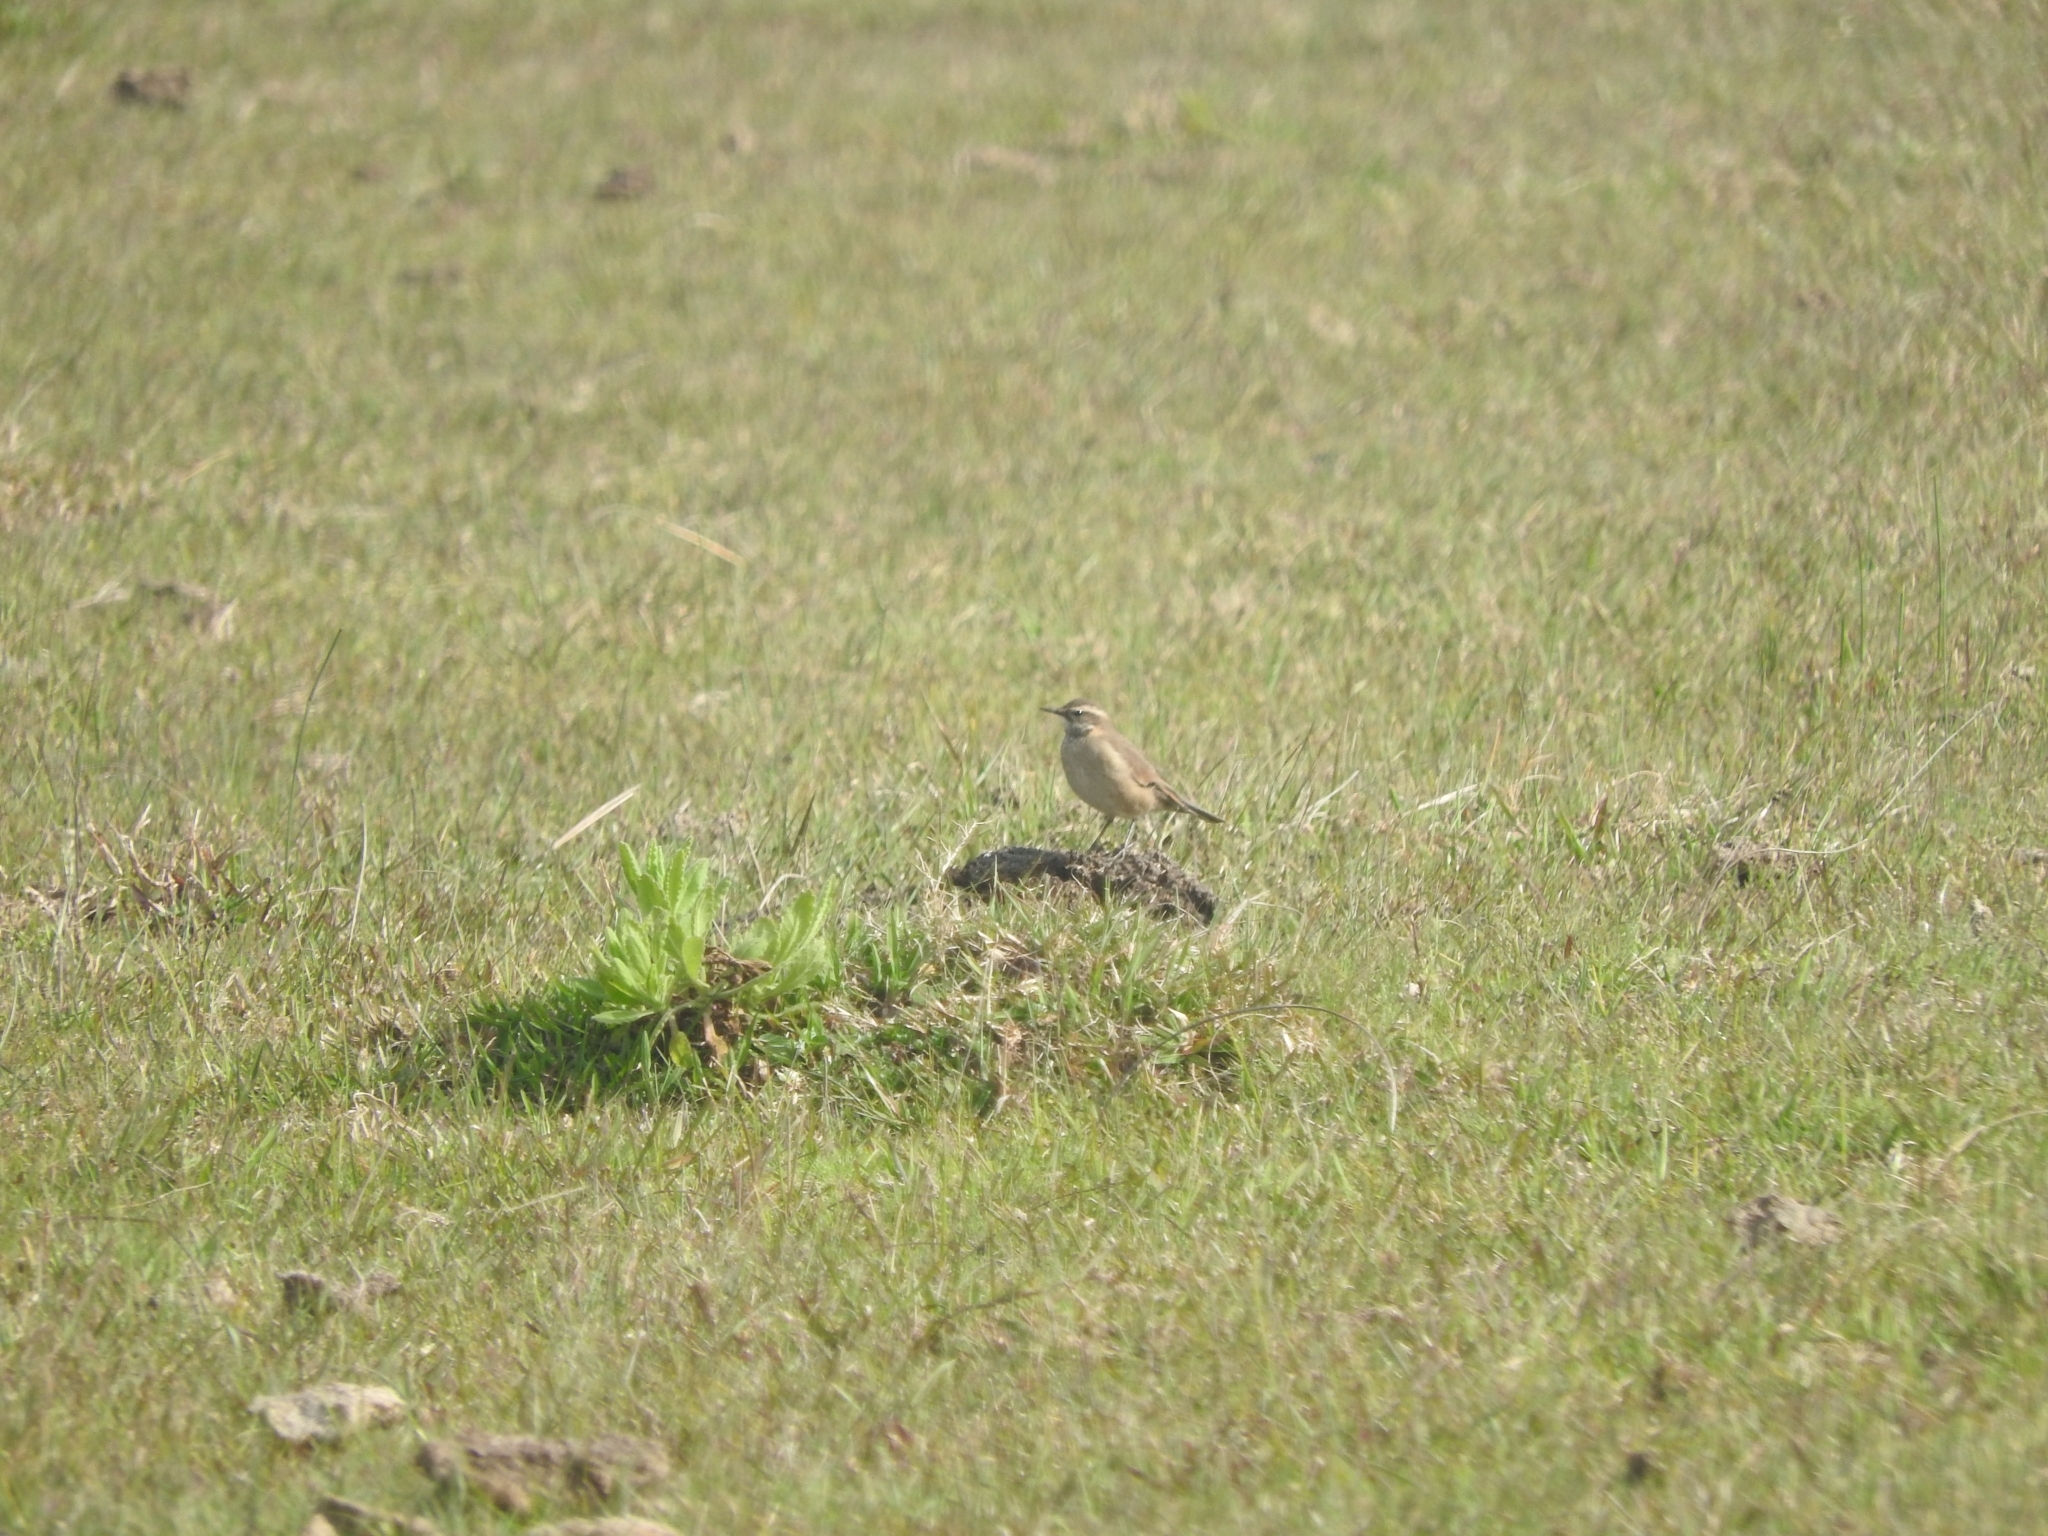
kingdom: Animalia
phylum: Chordata
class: Aves
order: Passeriformes
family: Furnariidae
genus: Cinclodes
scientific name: Cinclodes fuscus
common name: Buff-winged cinclodes
